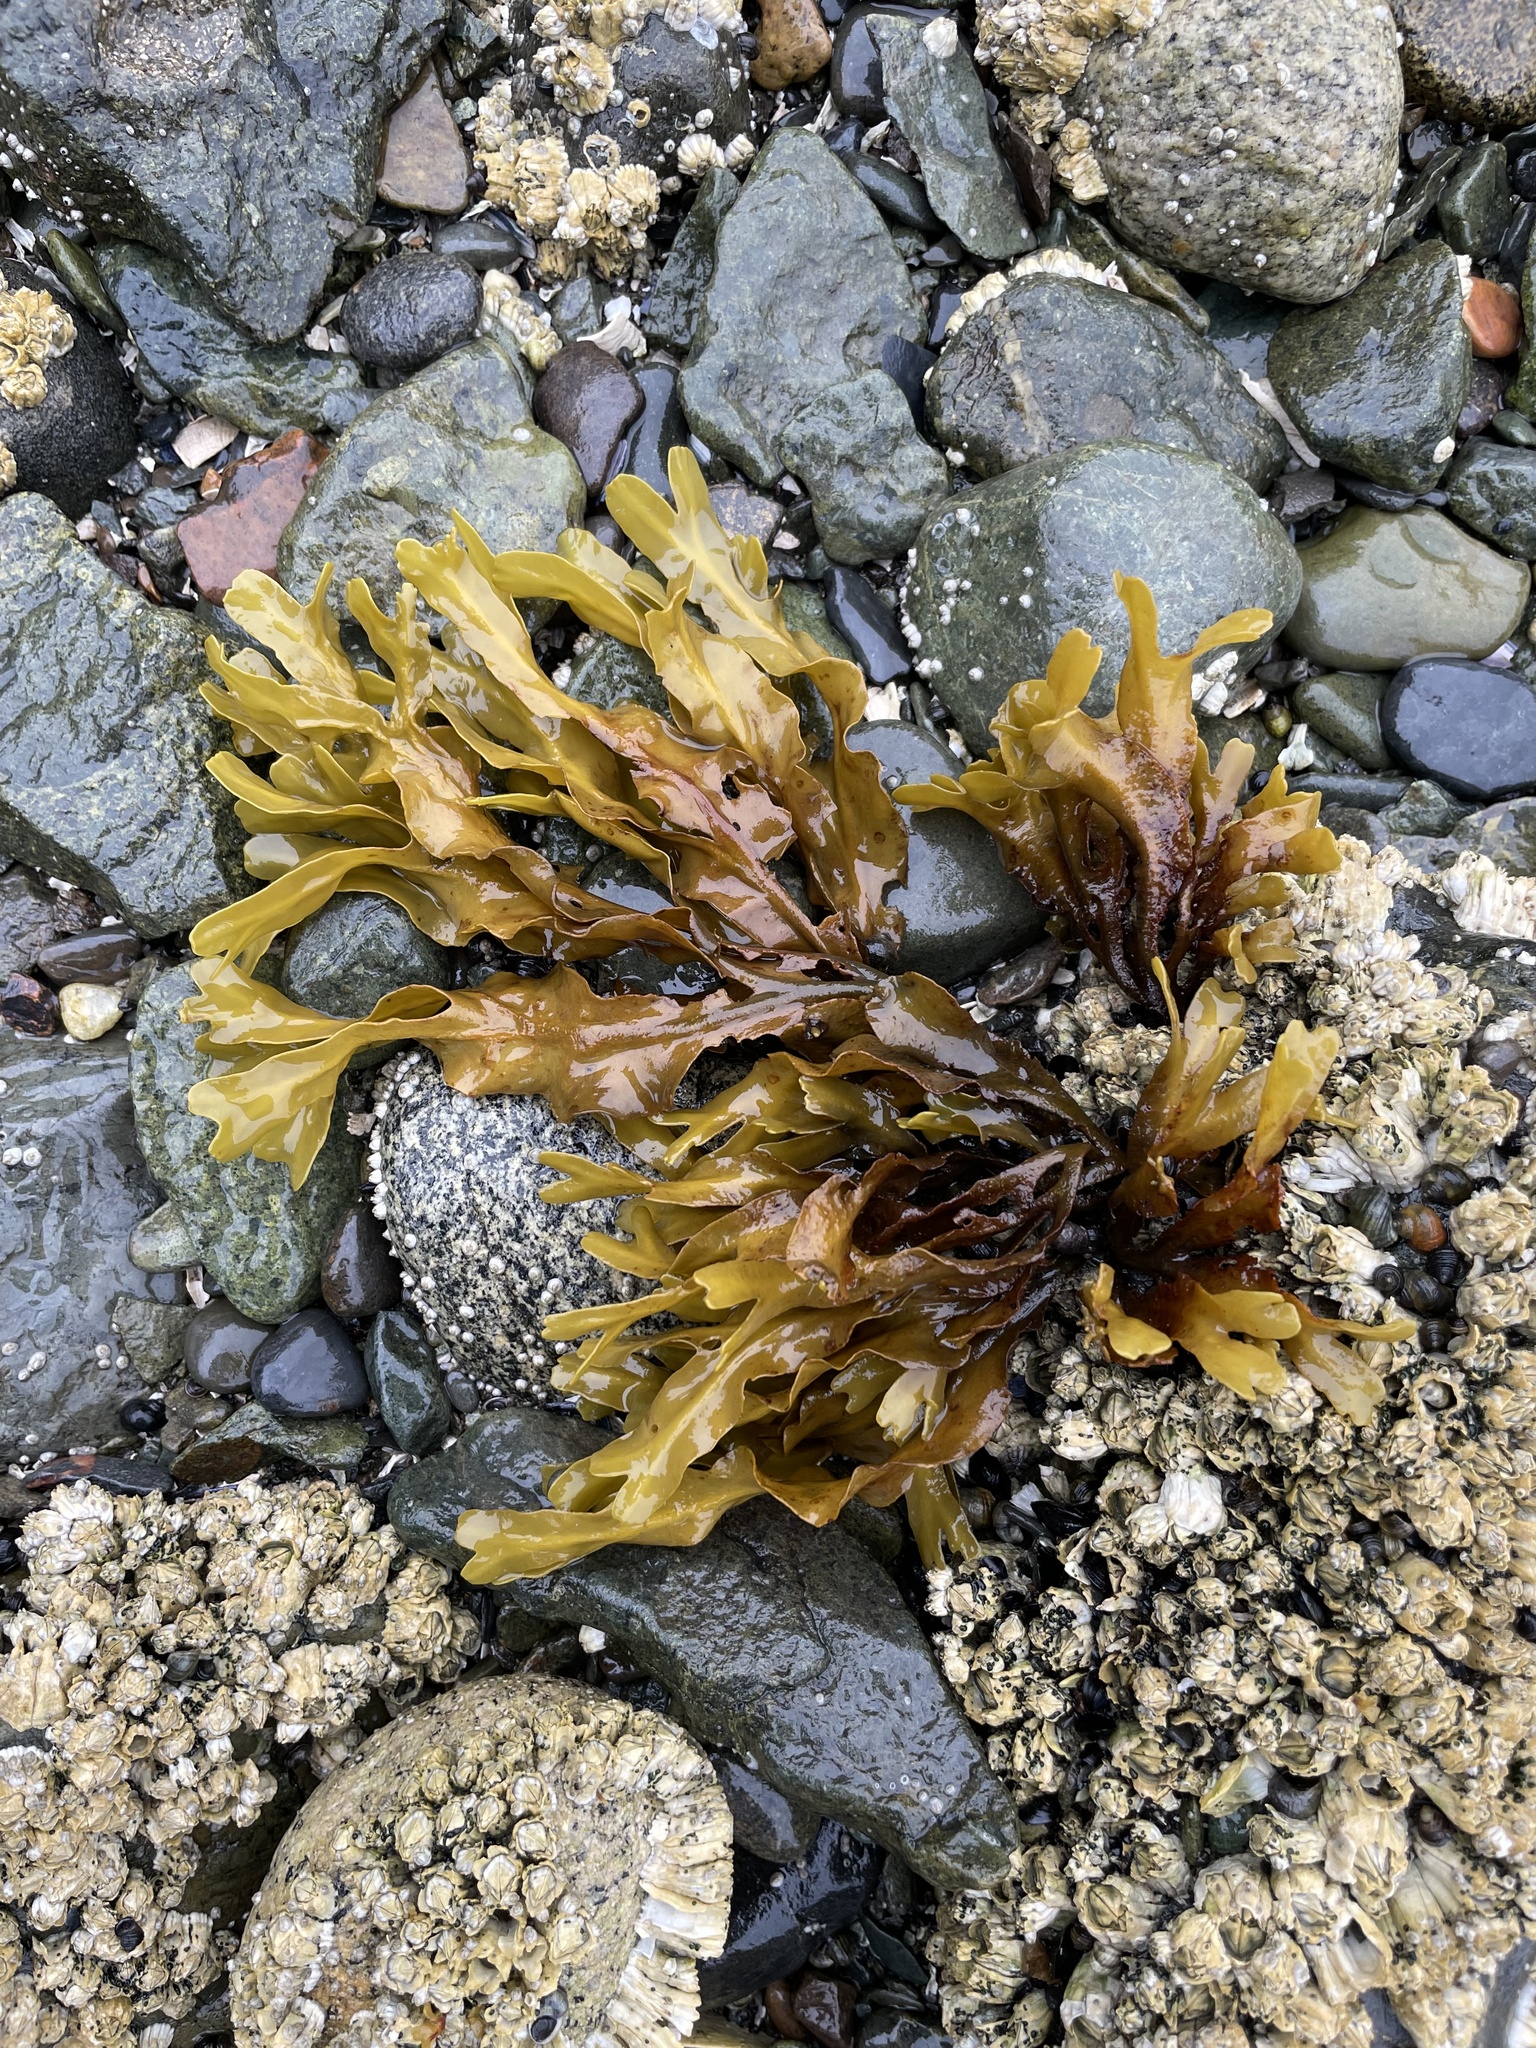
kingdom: Chromista
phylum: Ochrophyta
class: Phaeophyceae
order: Fucales
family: Fucaceae
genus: Fucus
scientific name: Fucus distichus
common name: Rockweed
